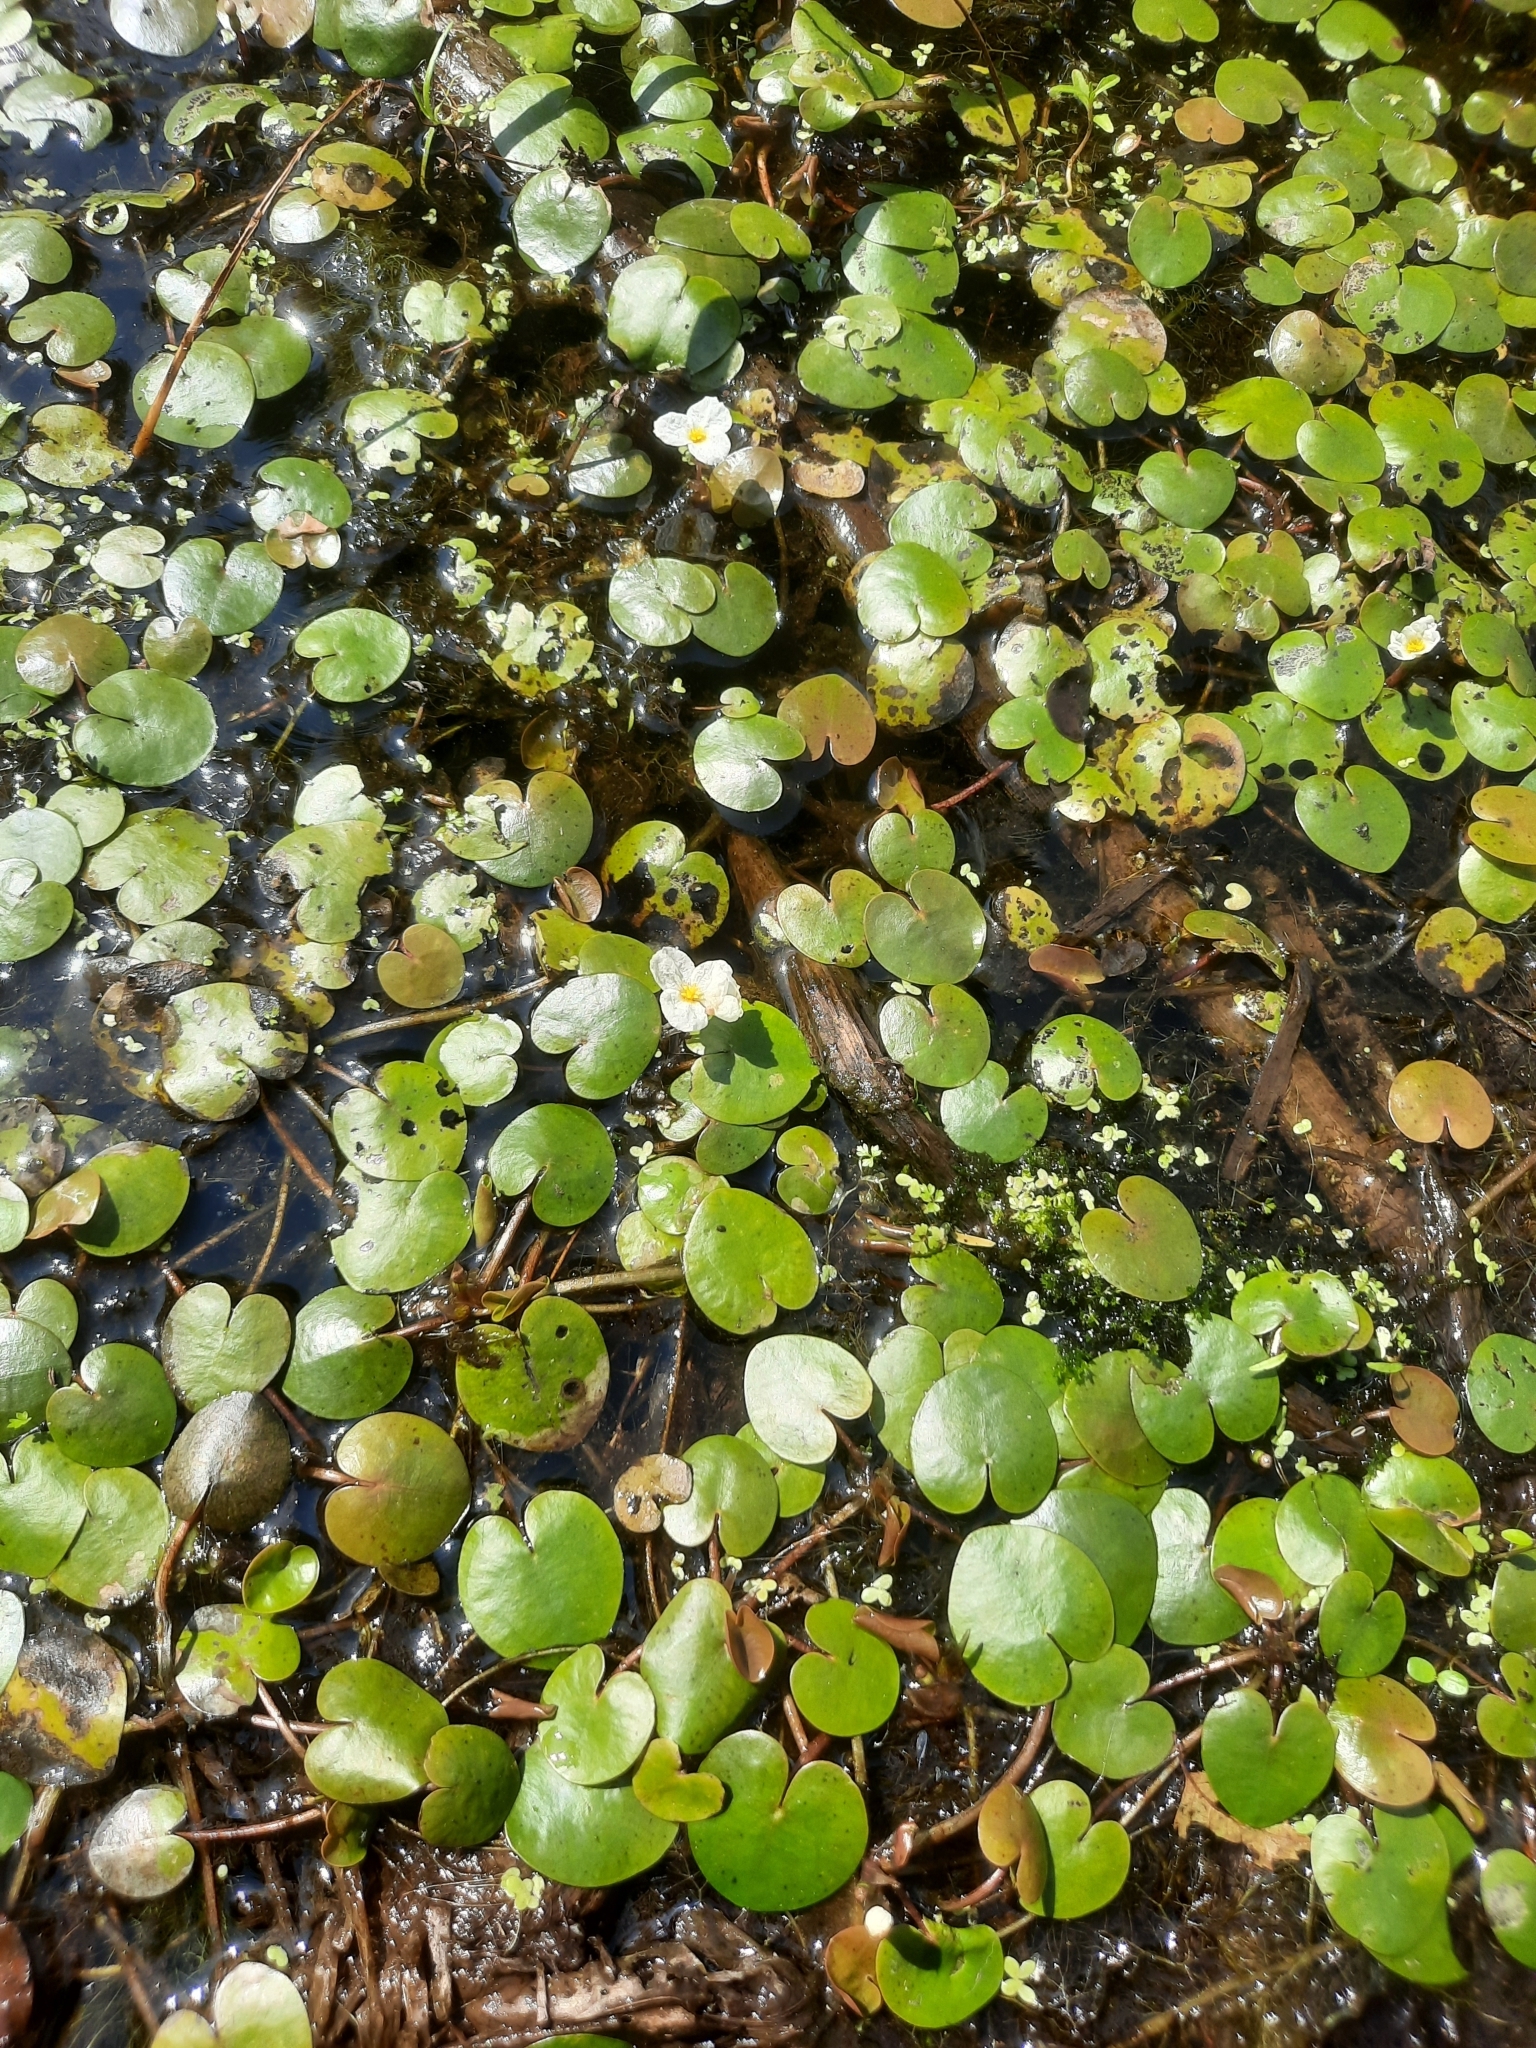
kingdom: Plantae
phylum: Tracheophyta
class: Liliopsida
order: Alismatales
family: Hydrocharitaceae
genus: Hydrocharis
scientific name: Hydrocharis morsus-ranae
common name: Frogbit
